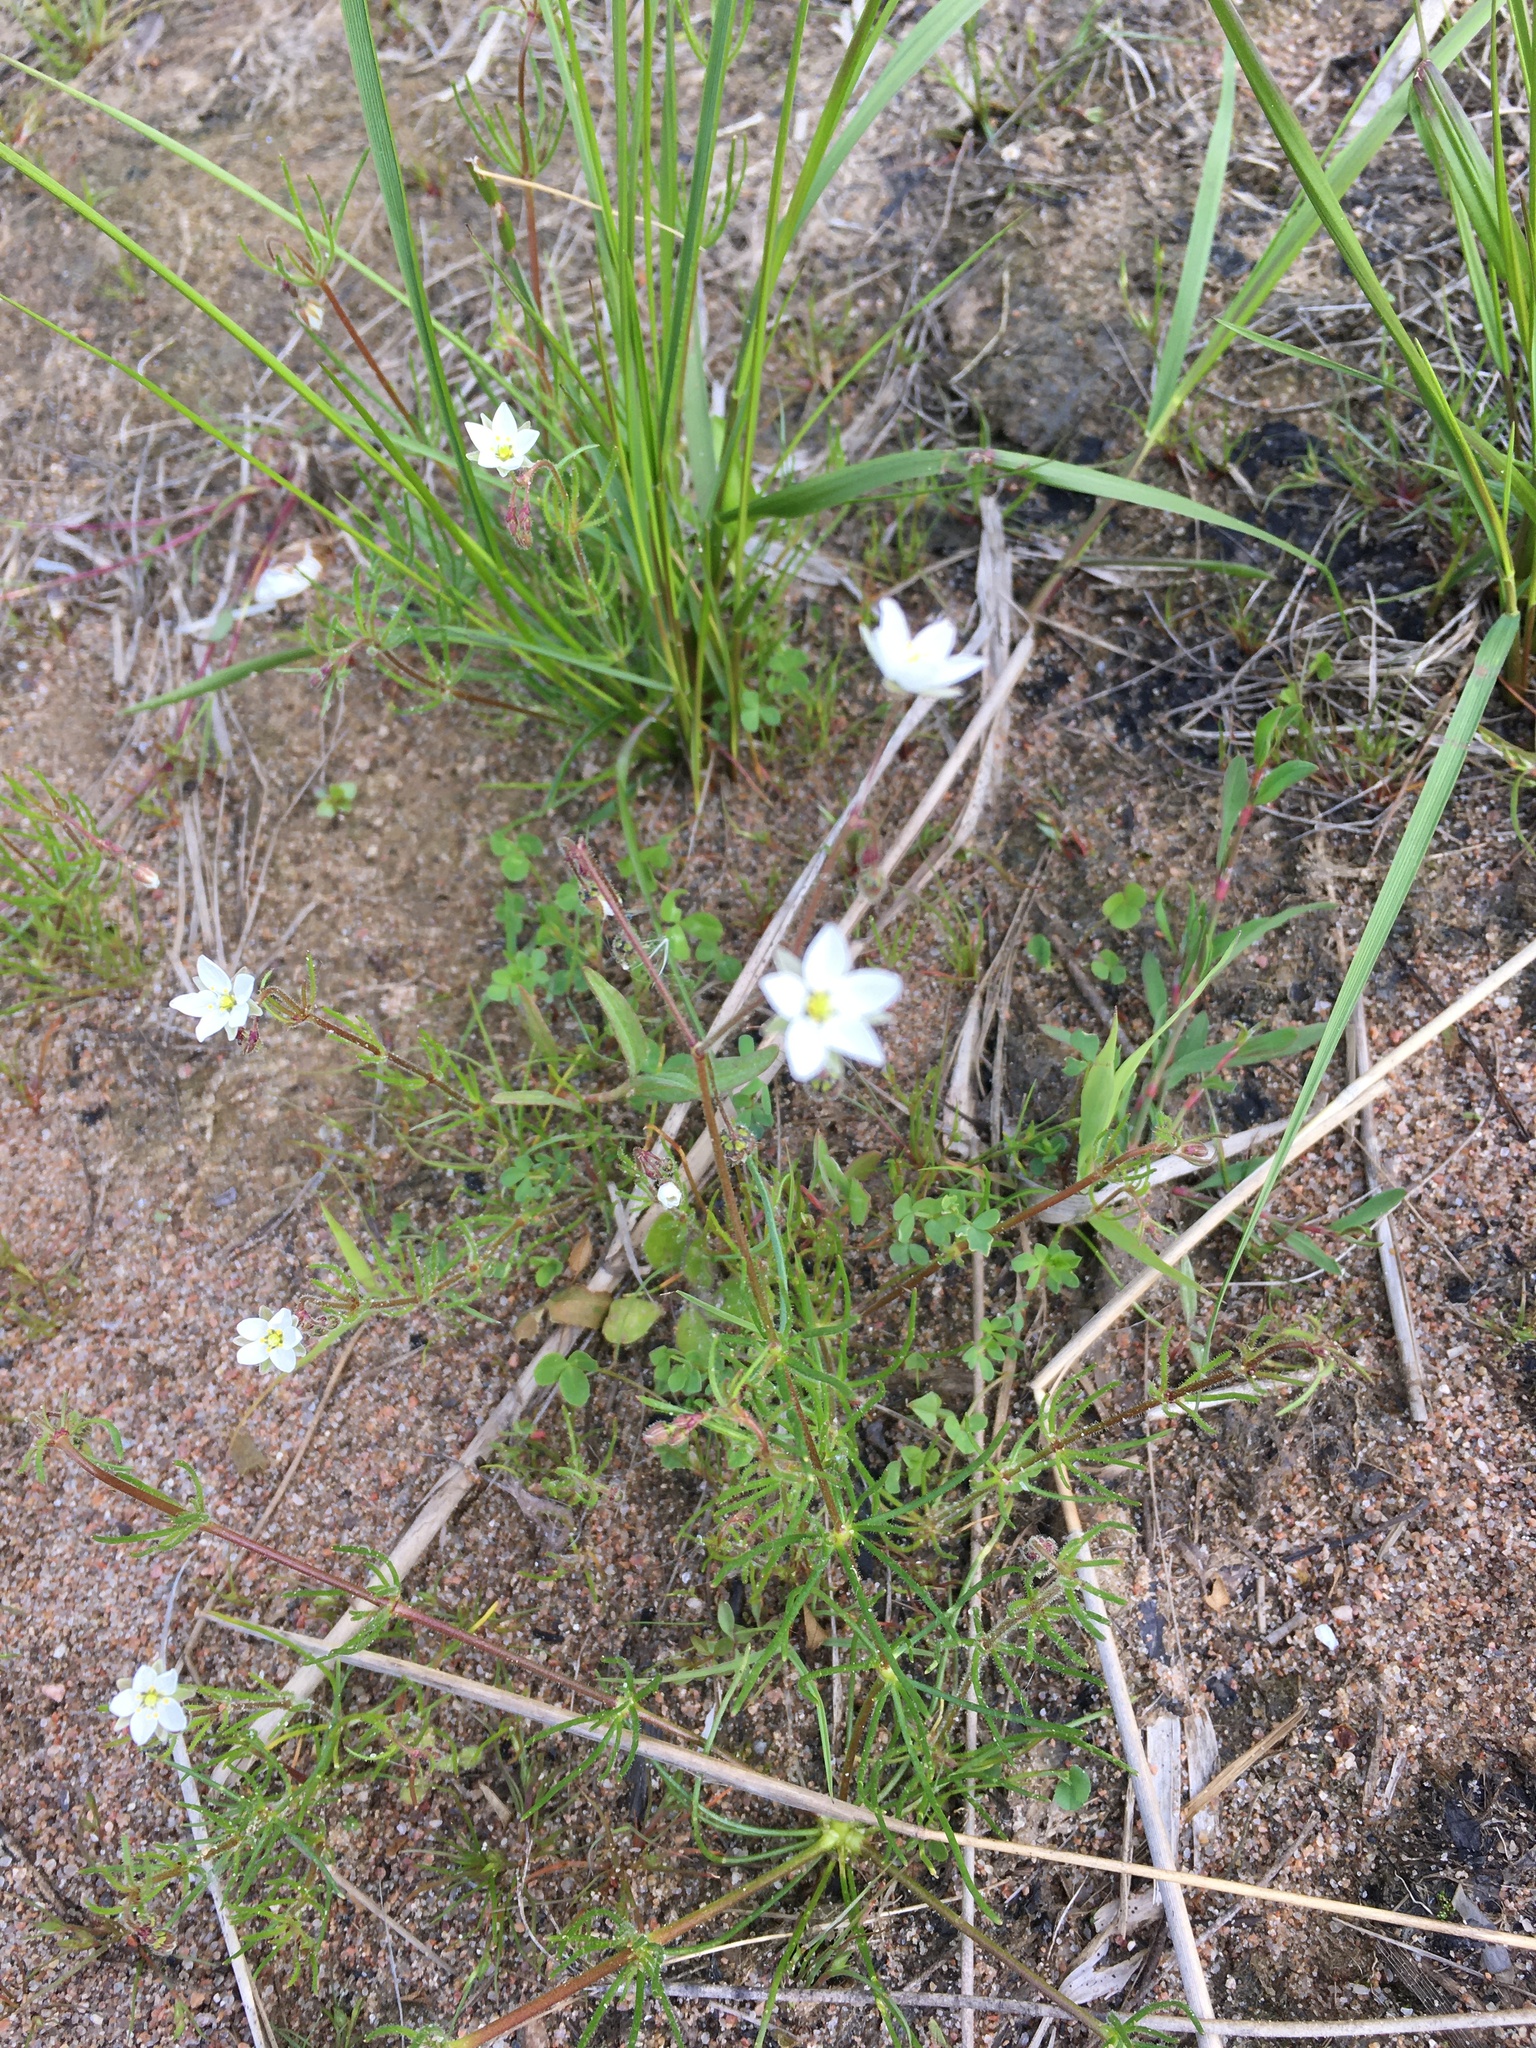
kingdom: Plantae
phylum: Tracheophyta
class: Magnoliopsida
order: Caryophyllales
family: Caryophyllaceae
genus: Spergula
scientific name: Spergula arvensis
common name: Corn spurrey
